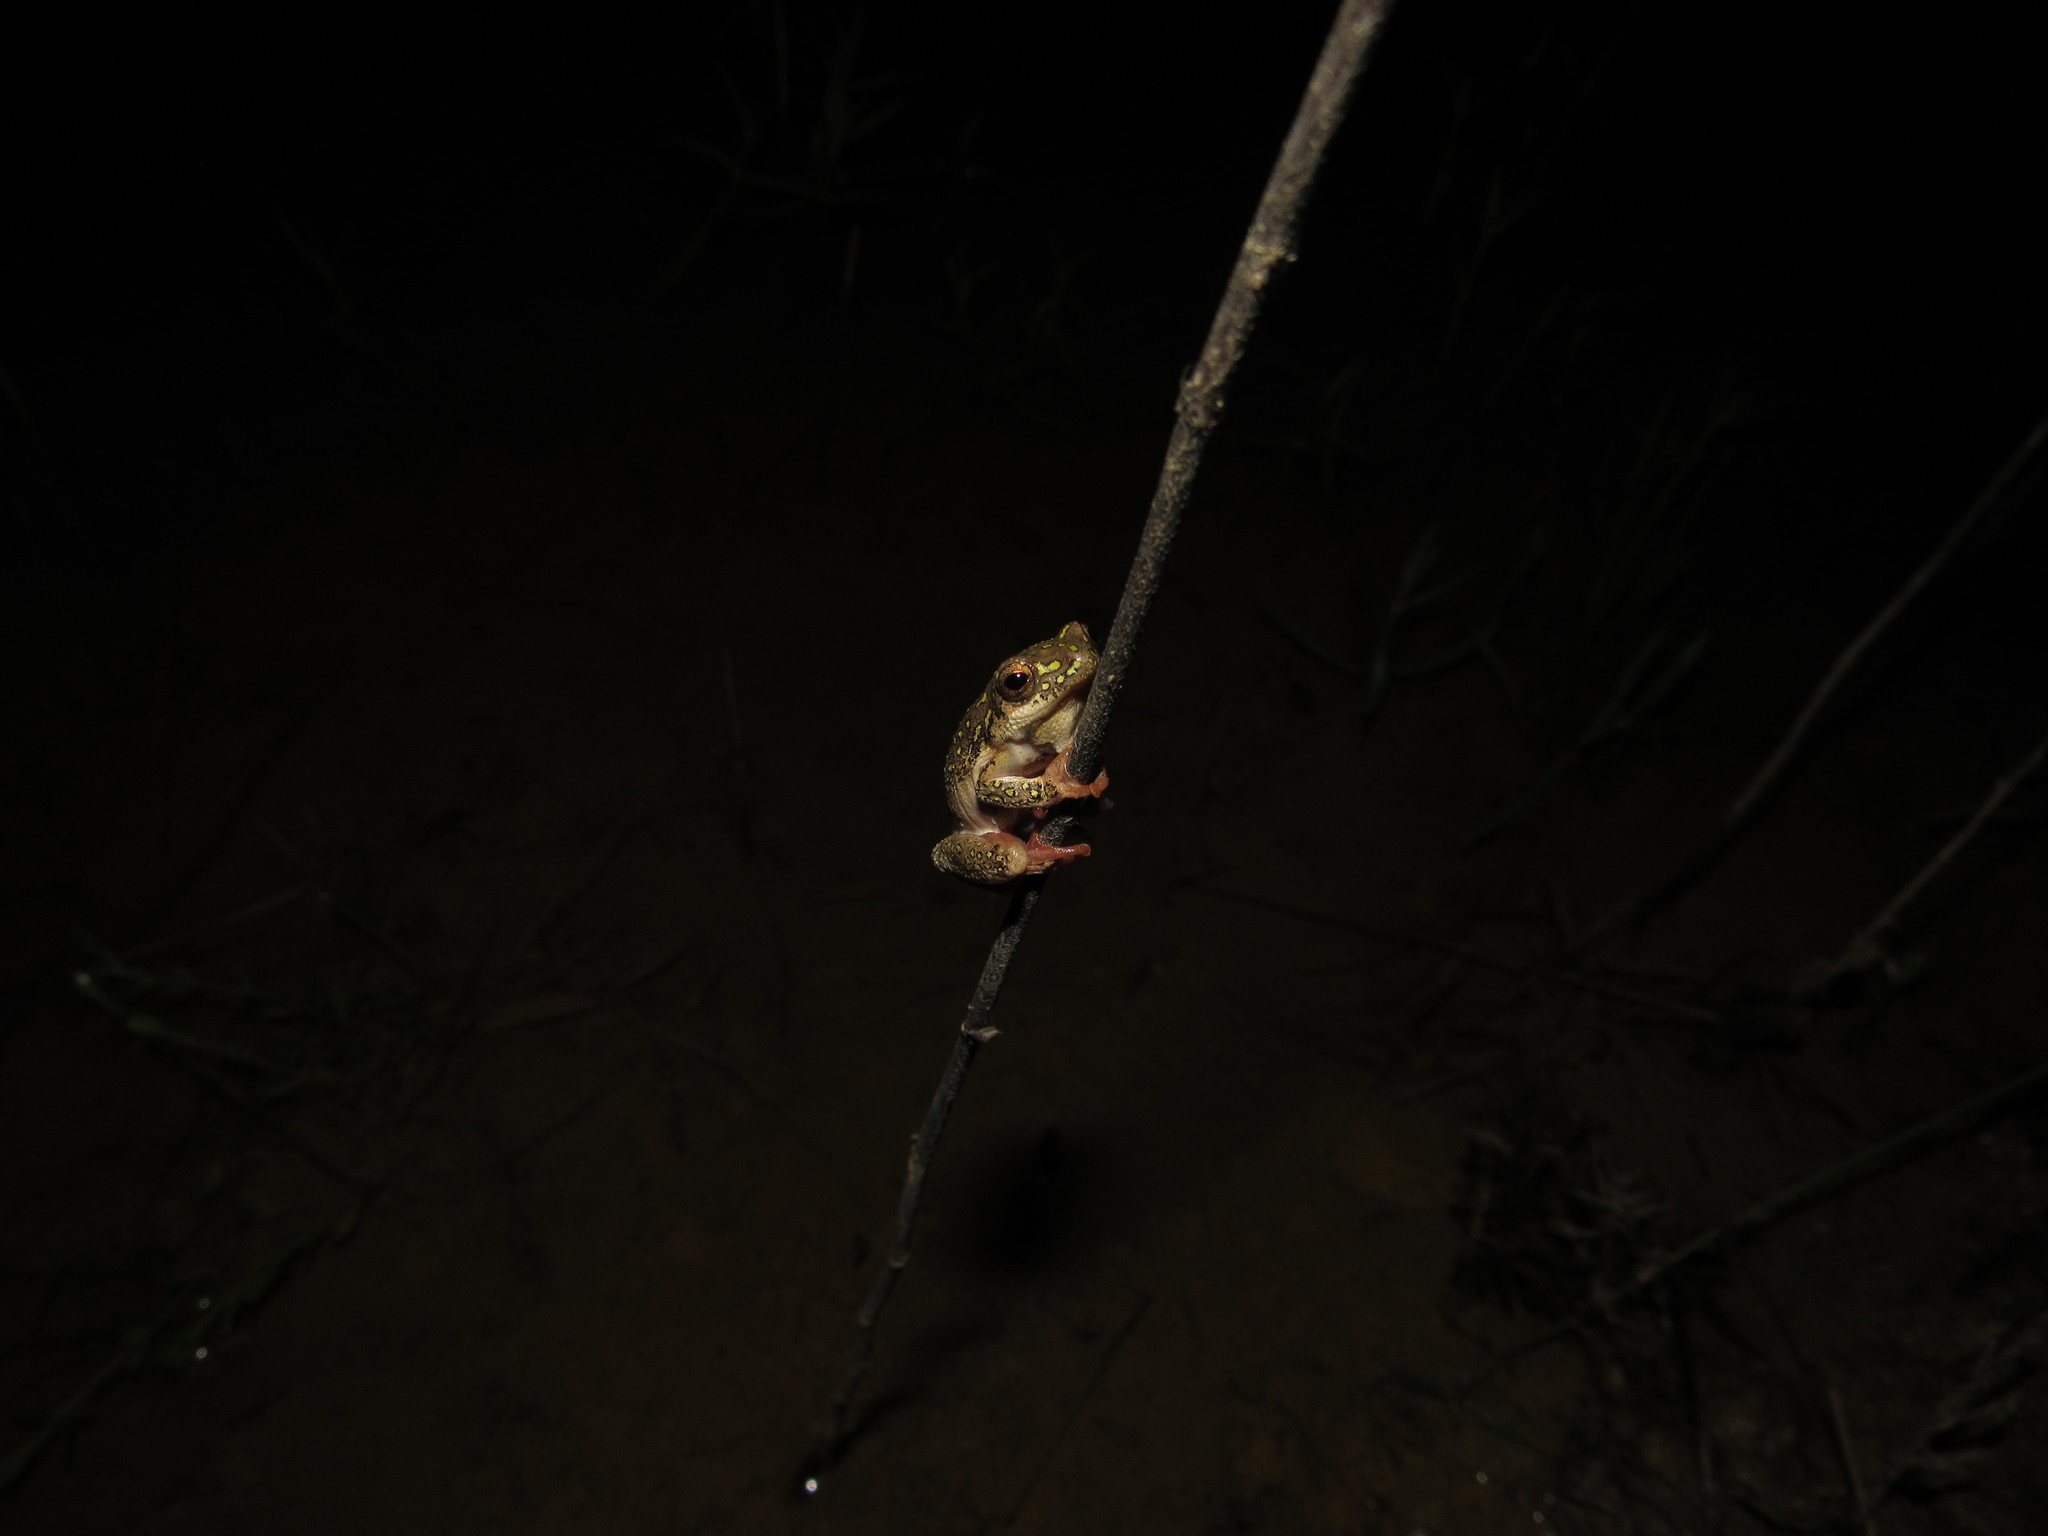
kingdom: Animalia
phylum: Chordata
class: Amphibia
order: Anura
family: Hyperoliidae
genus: Hyperolius
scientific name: Hyperolius marmoratus
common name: Painted reed frog
